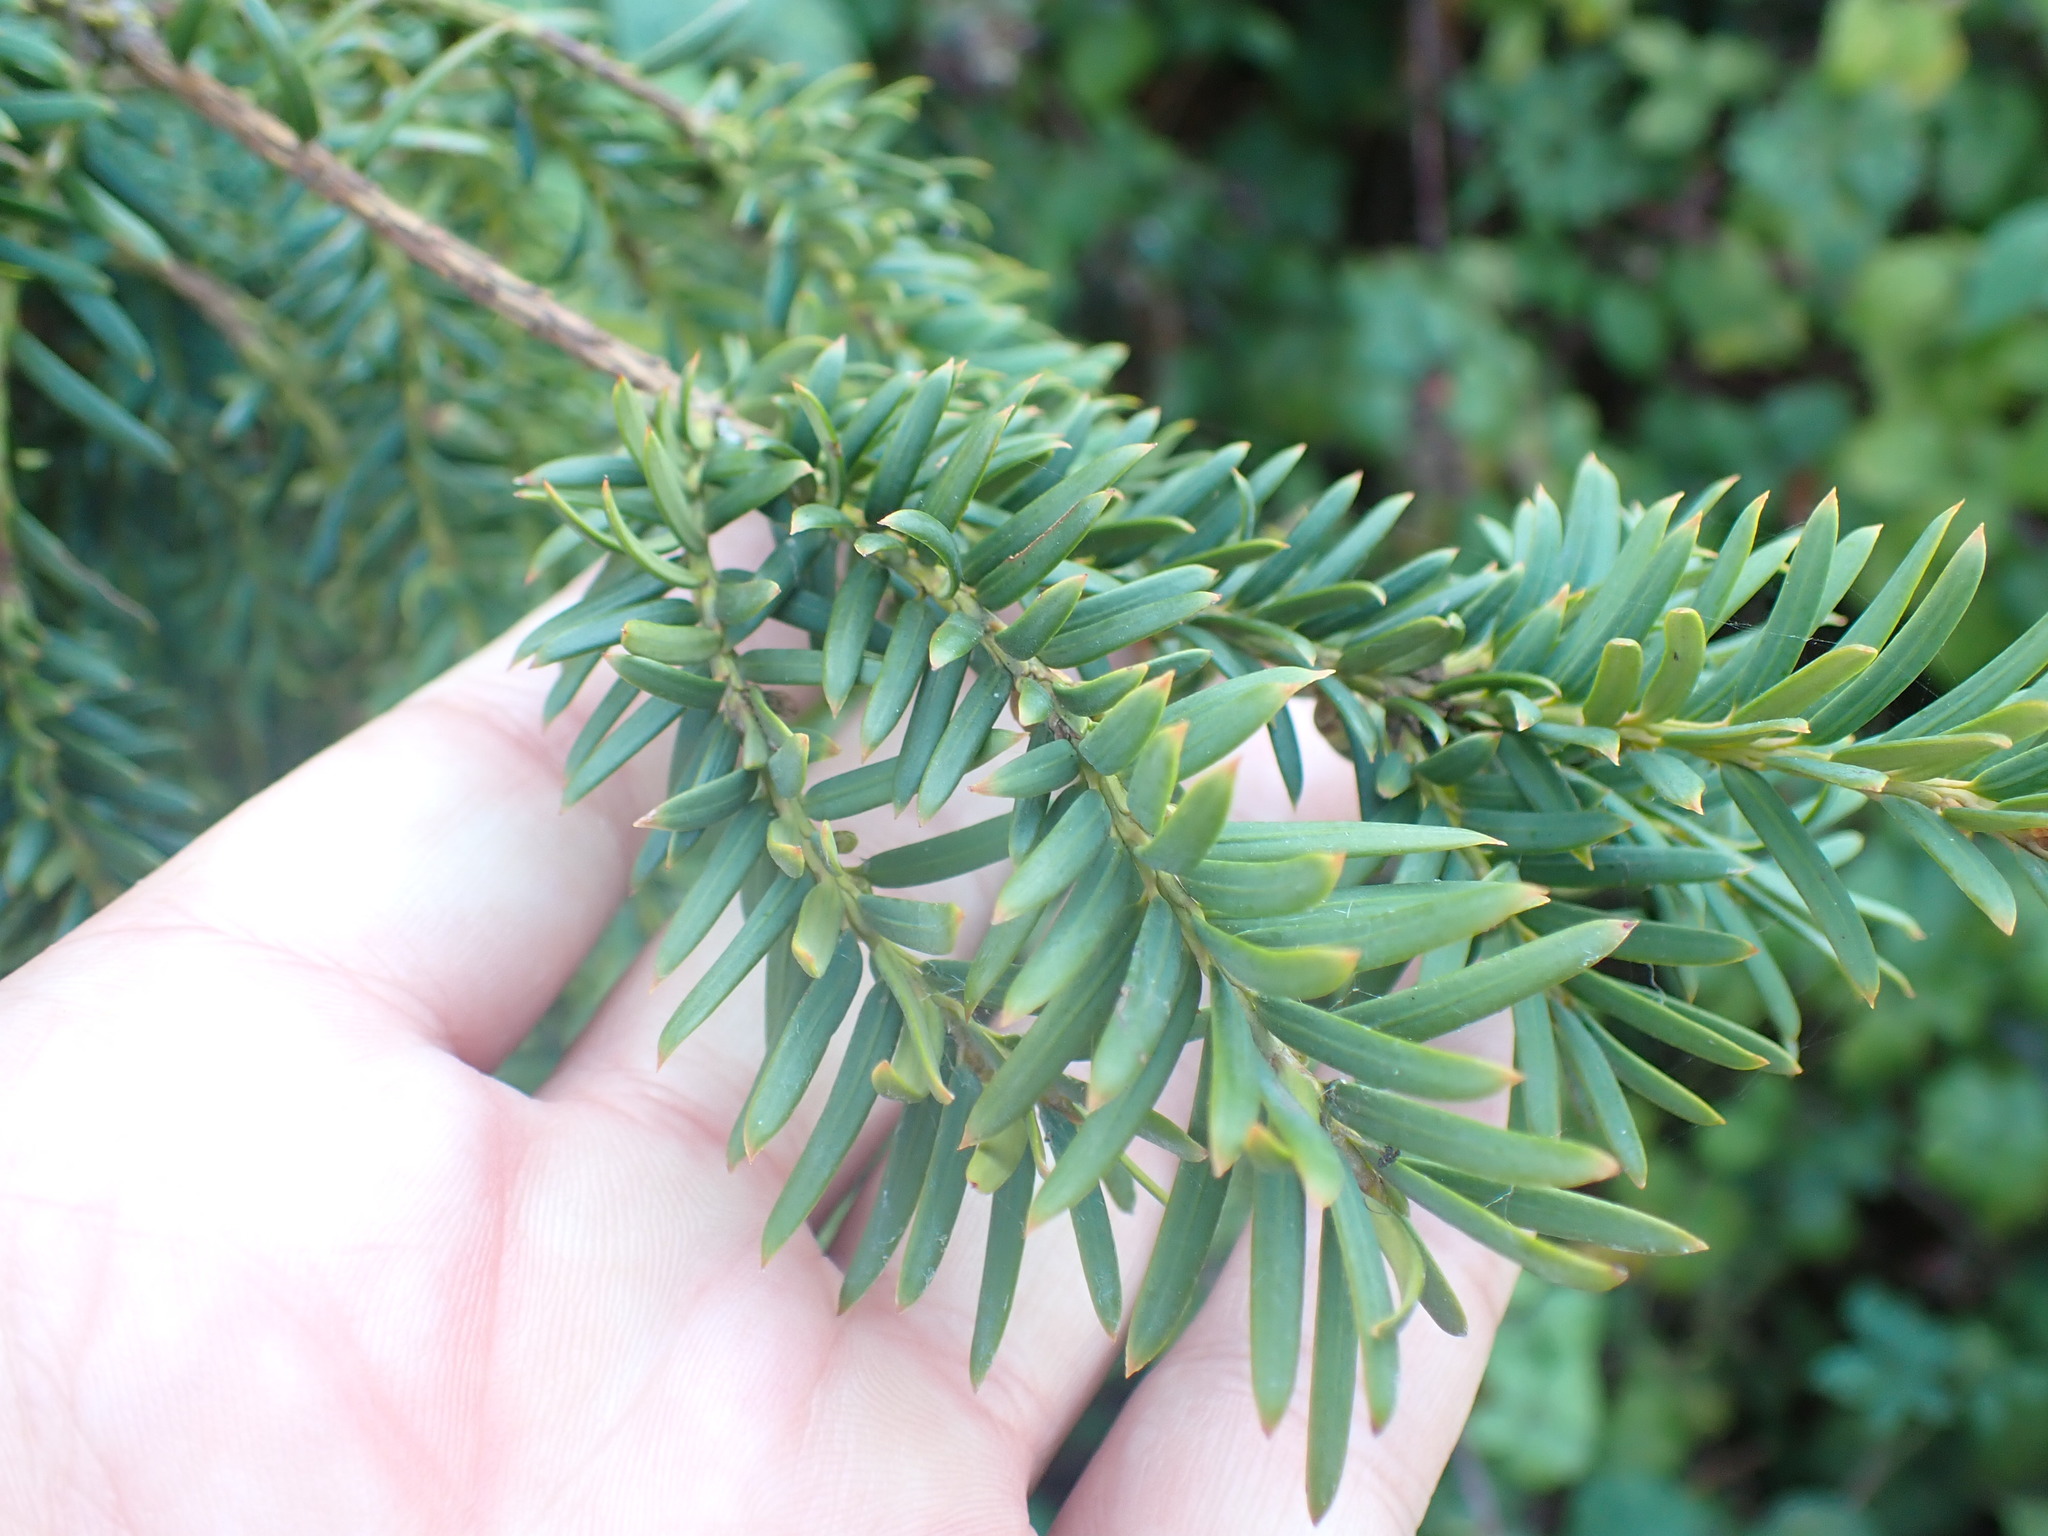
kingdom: Plantae
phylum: Tracheophyta
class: Pinopsida
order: Pinales
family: Taxaceae
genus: Taxus
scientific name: Taxus baccata
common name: Yew
